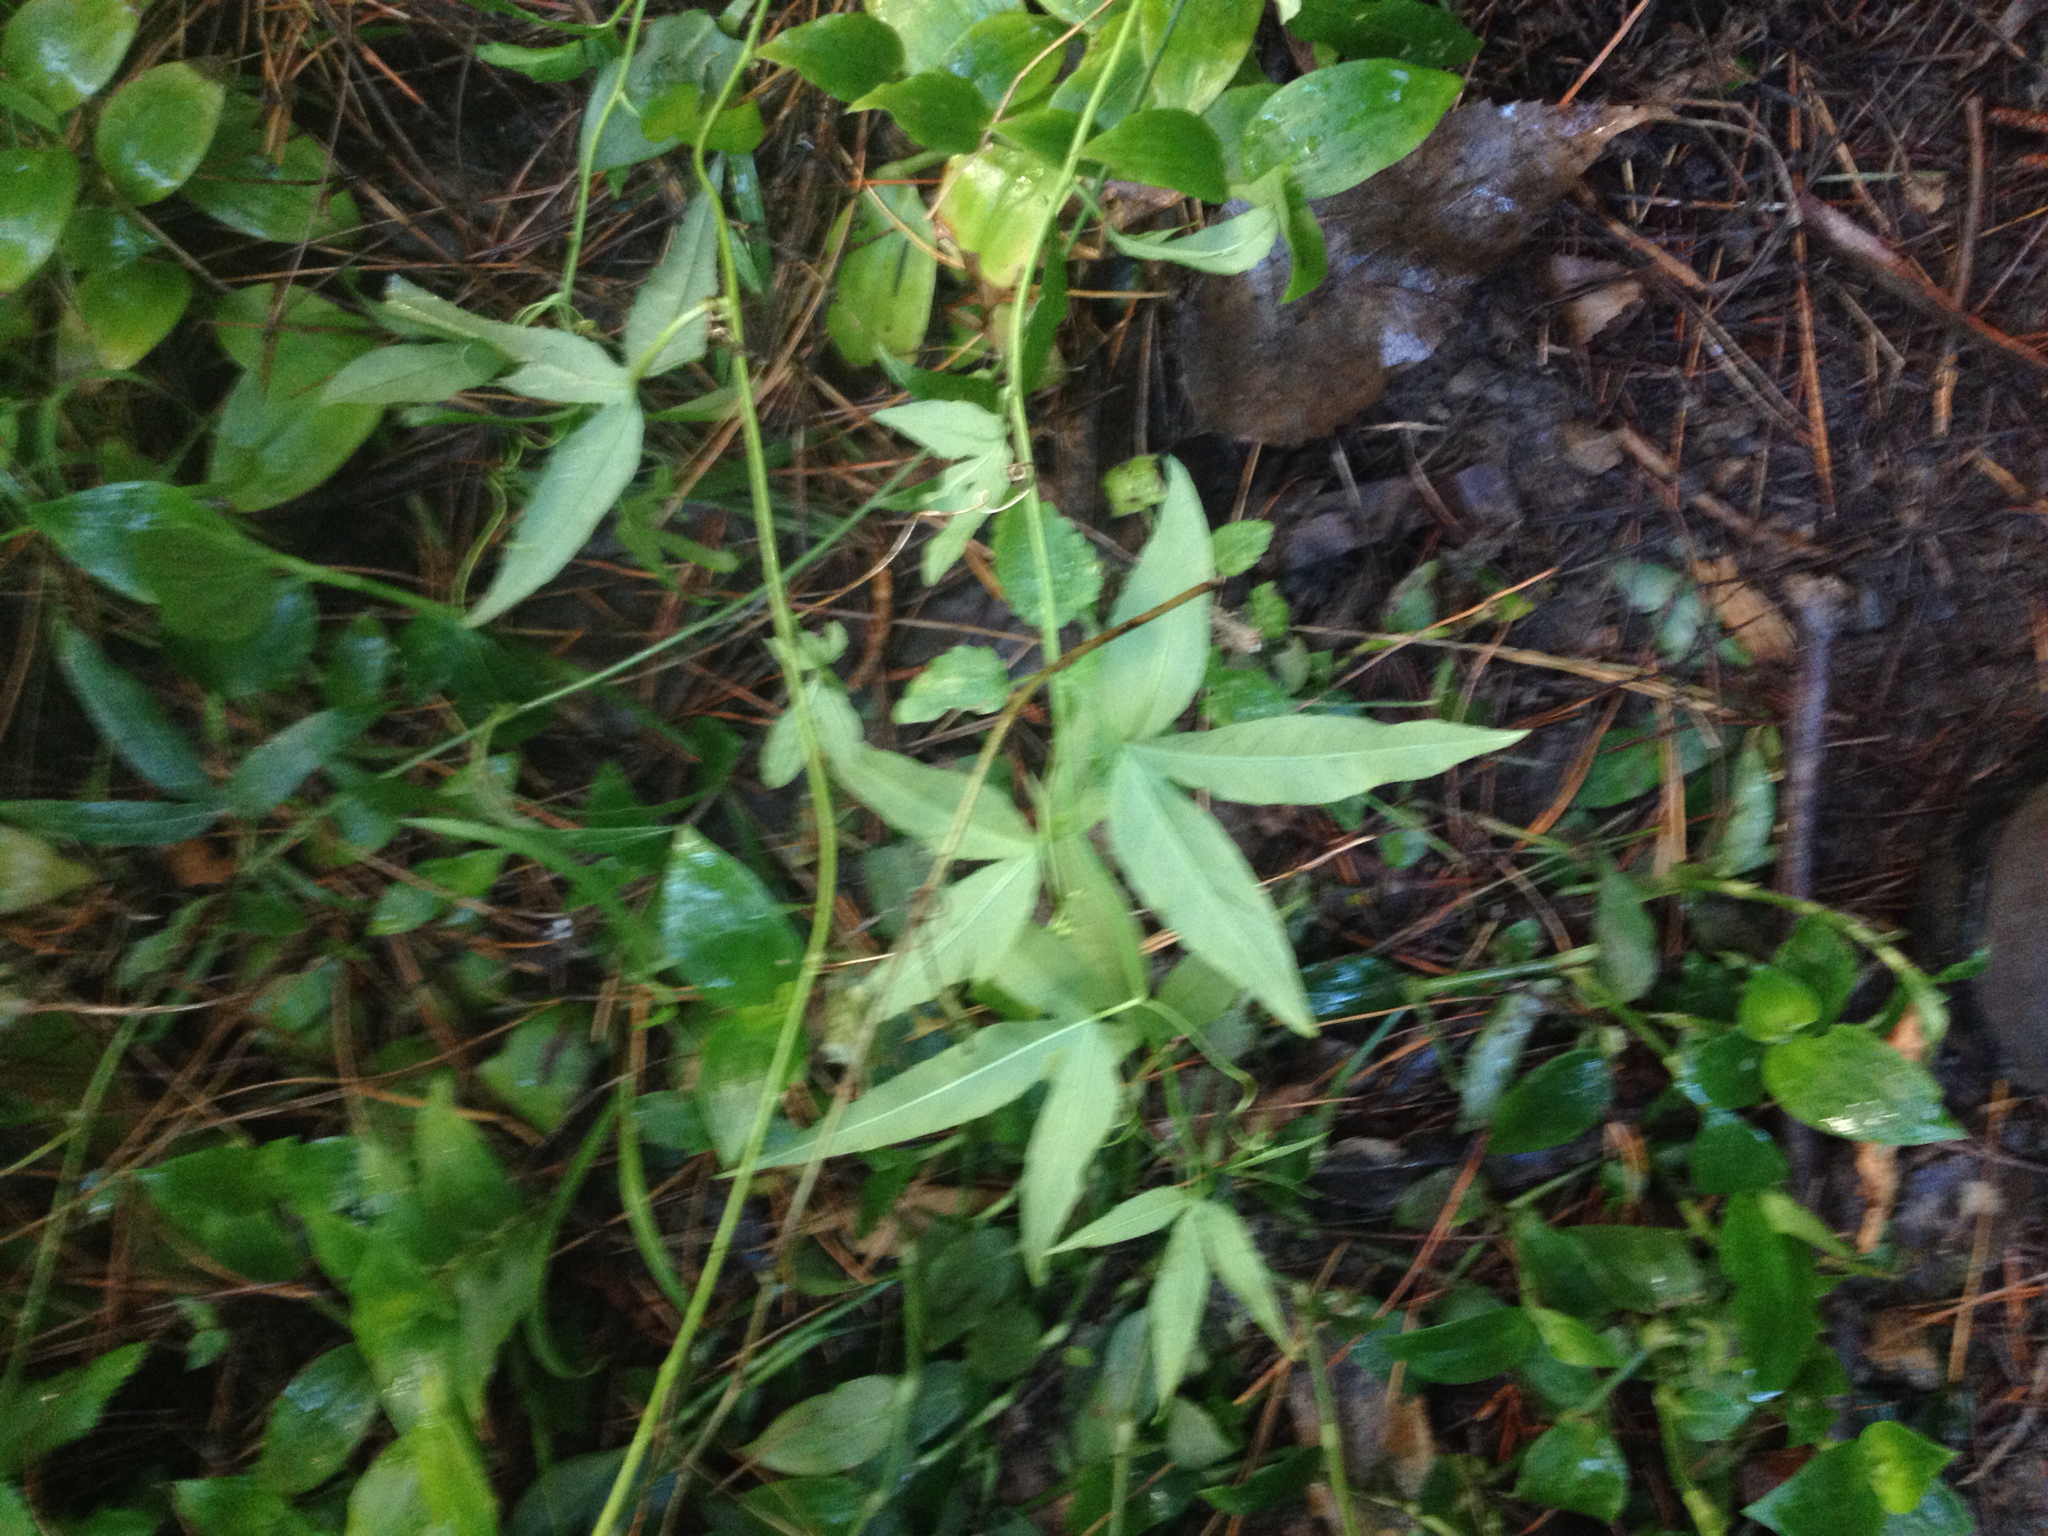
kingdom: Plantae
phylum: Tracheophyta
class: Magnoliopsida
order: Malpighiales
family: Passifloraceae
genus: Passiflora
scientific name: Passiflora tripartita
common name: Banana poka
